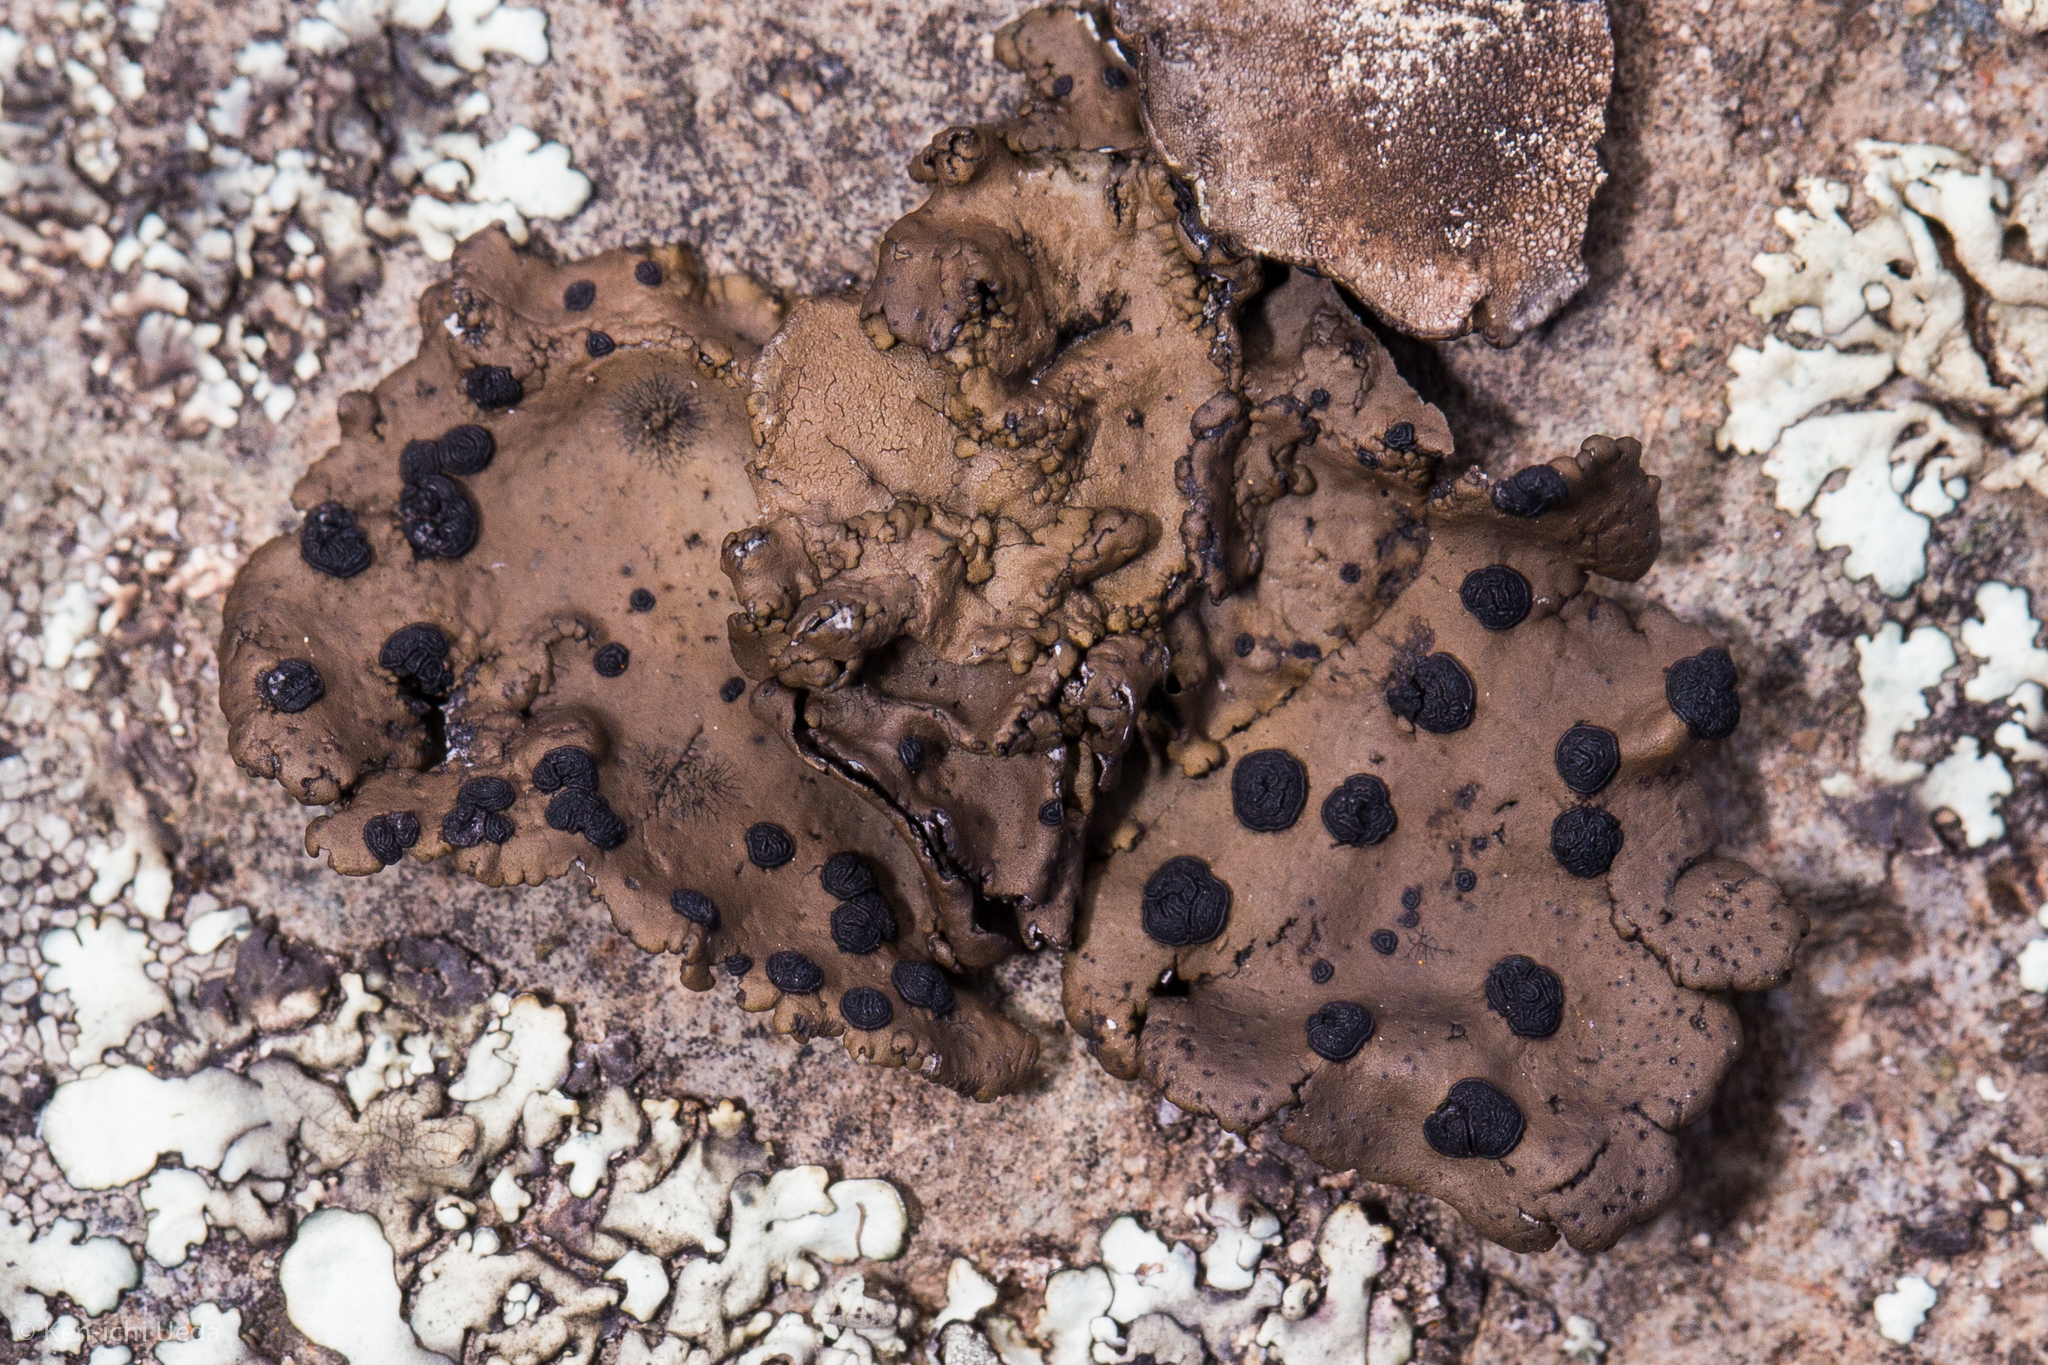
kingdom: Fungi
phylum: Ascomycota
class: Lecanoromycetes
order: Umbilicariales
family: Umbilicariaceae
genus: Umbilicaria
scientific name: Umbilicaria phaea
